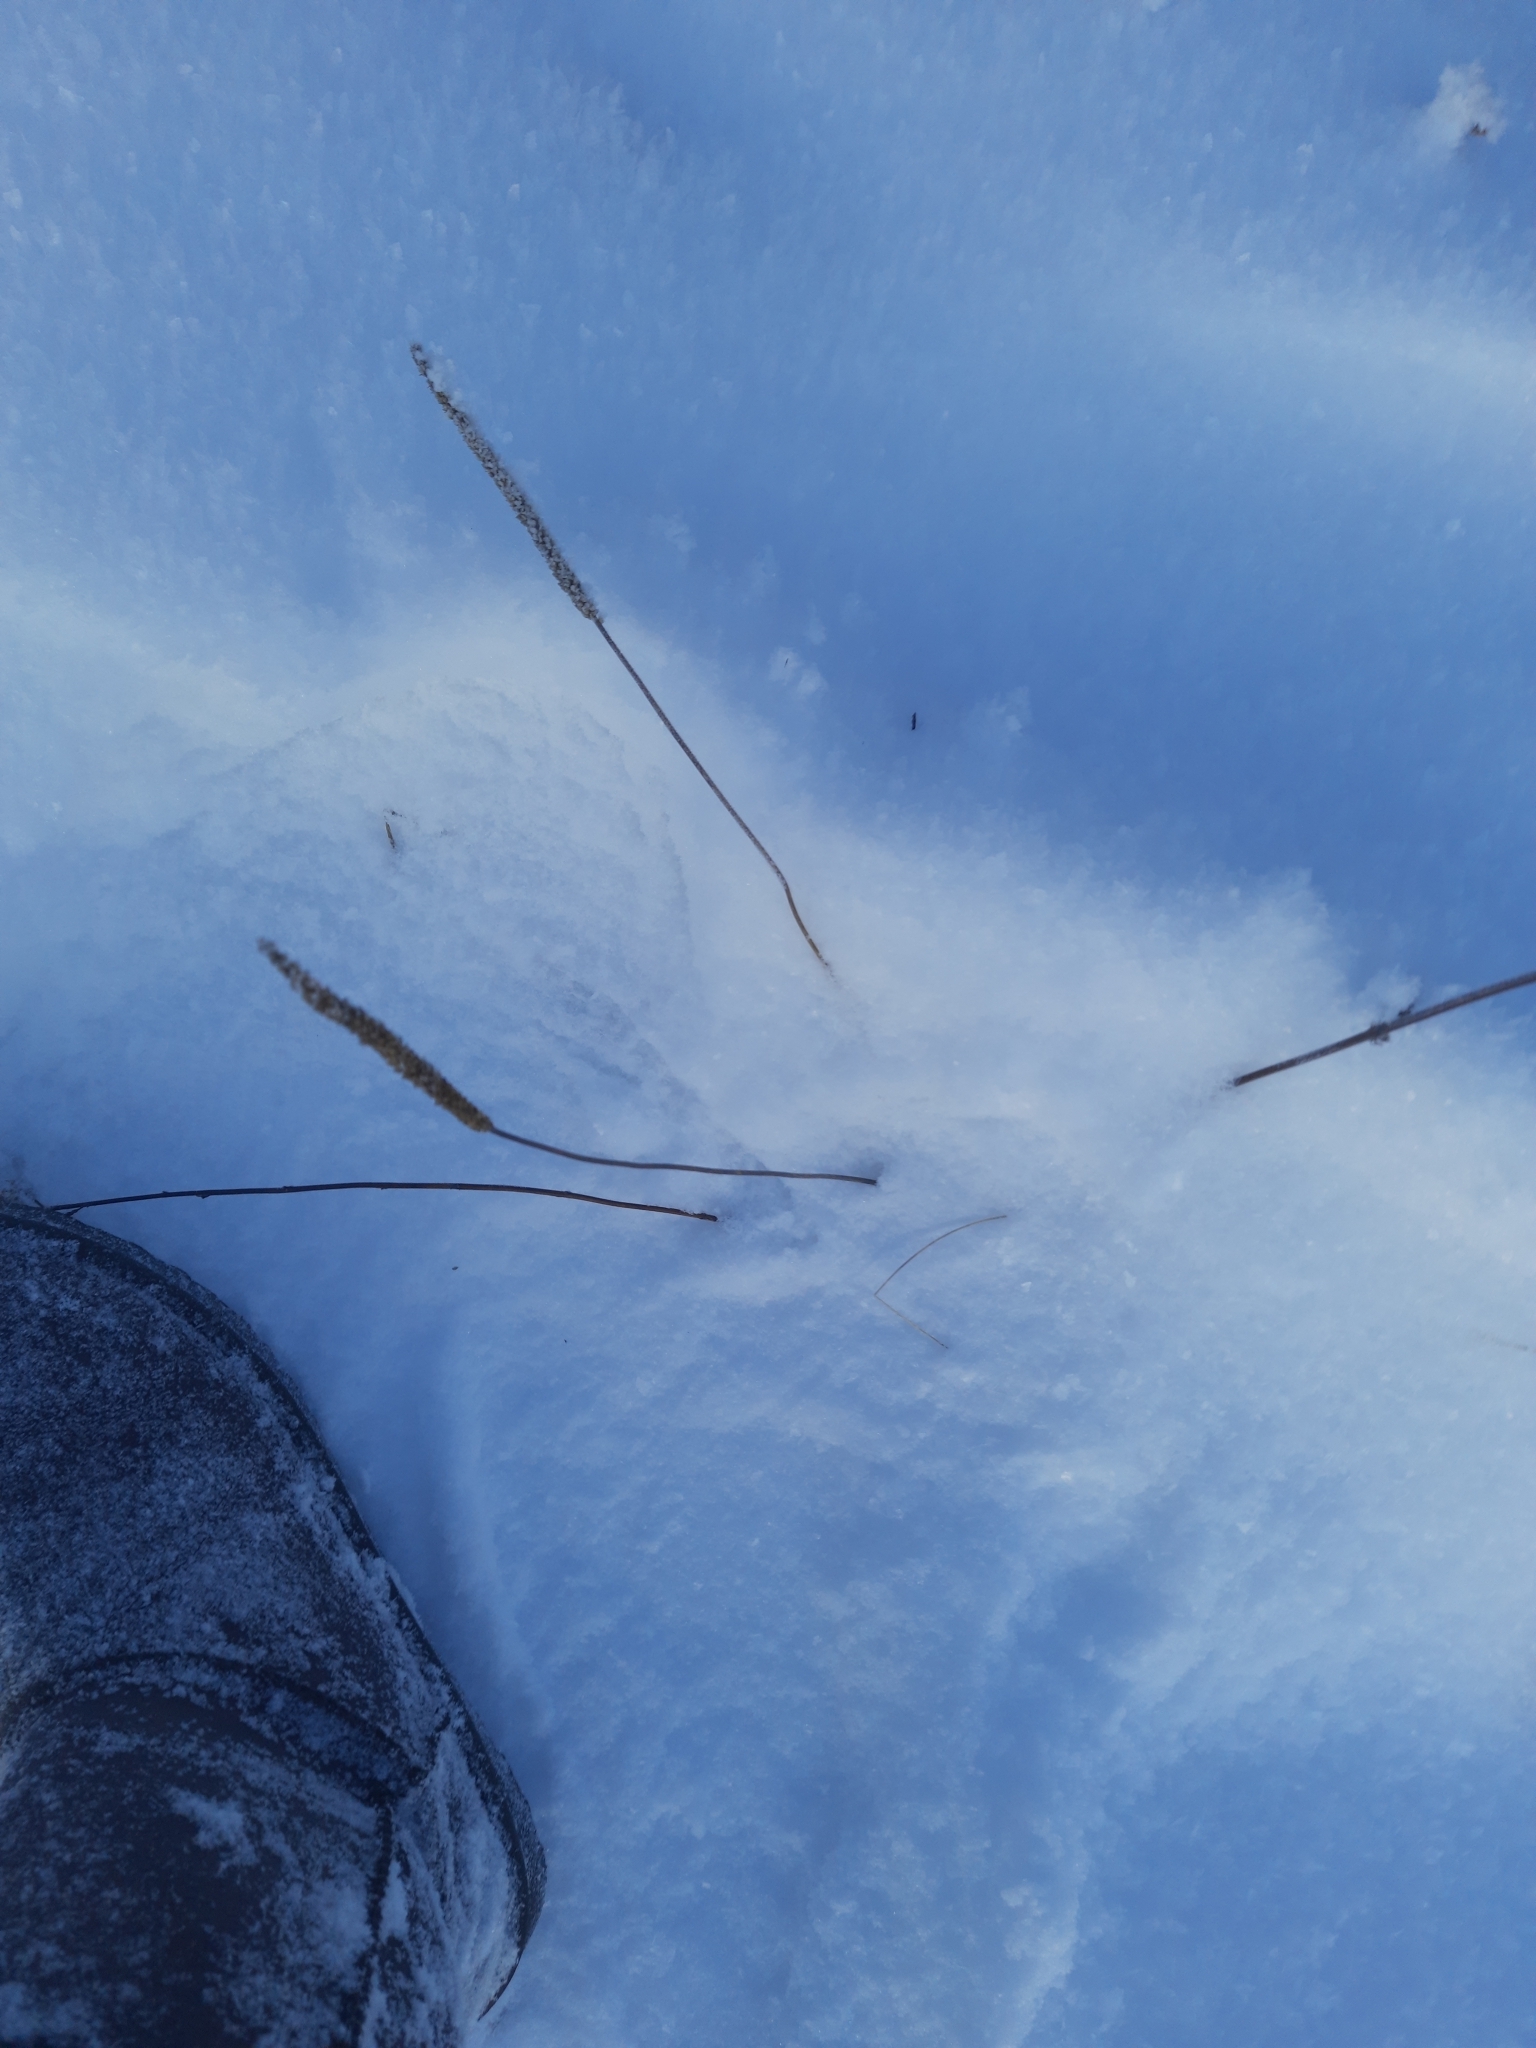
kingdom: Plantae
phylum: Tracheophyta
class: Magnoliopsida
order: Lamiales
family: Plantaginaceae
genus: Plantago
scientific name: Plantago major
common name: Common plantain
